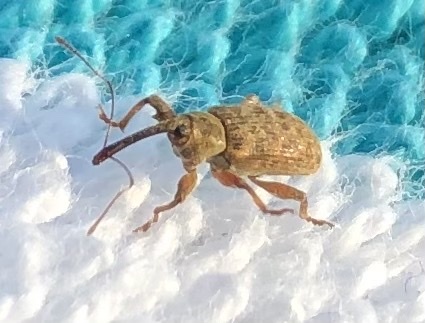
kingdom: Animalia
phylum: Arthropoda
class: Insecta
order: Coleoptera
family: Brachyceridae
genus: Erirhinus
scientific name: Erirhinus filirostris
